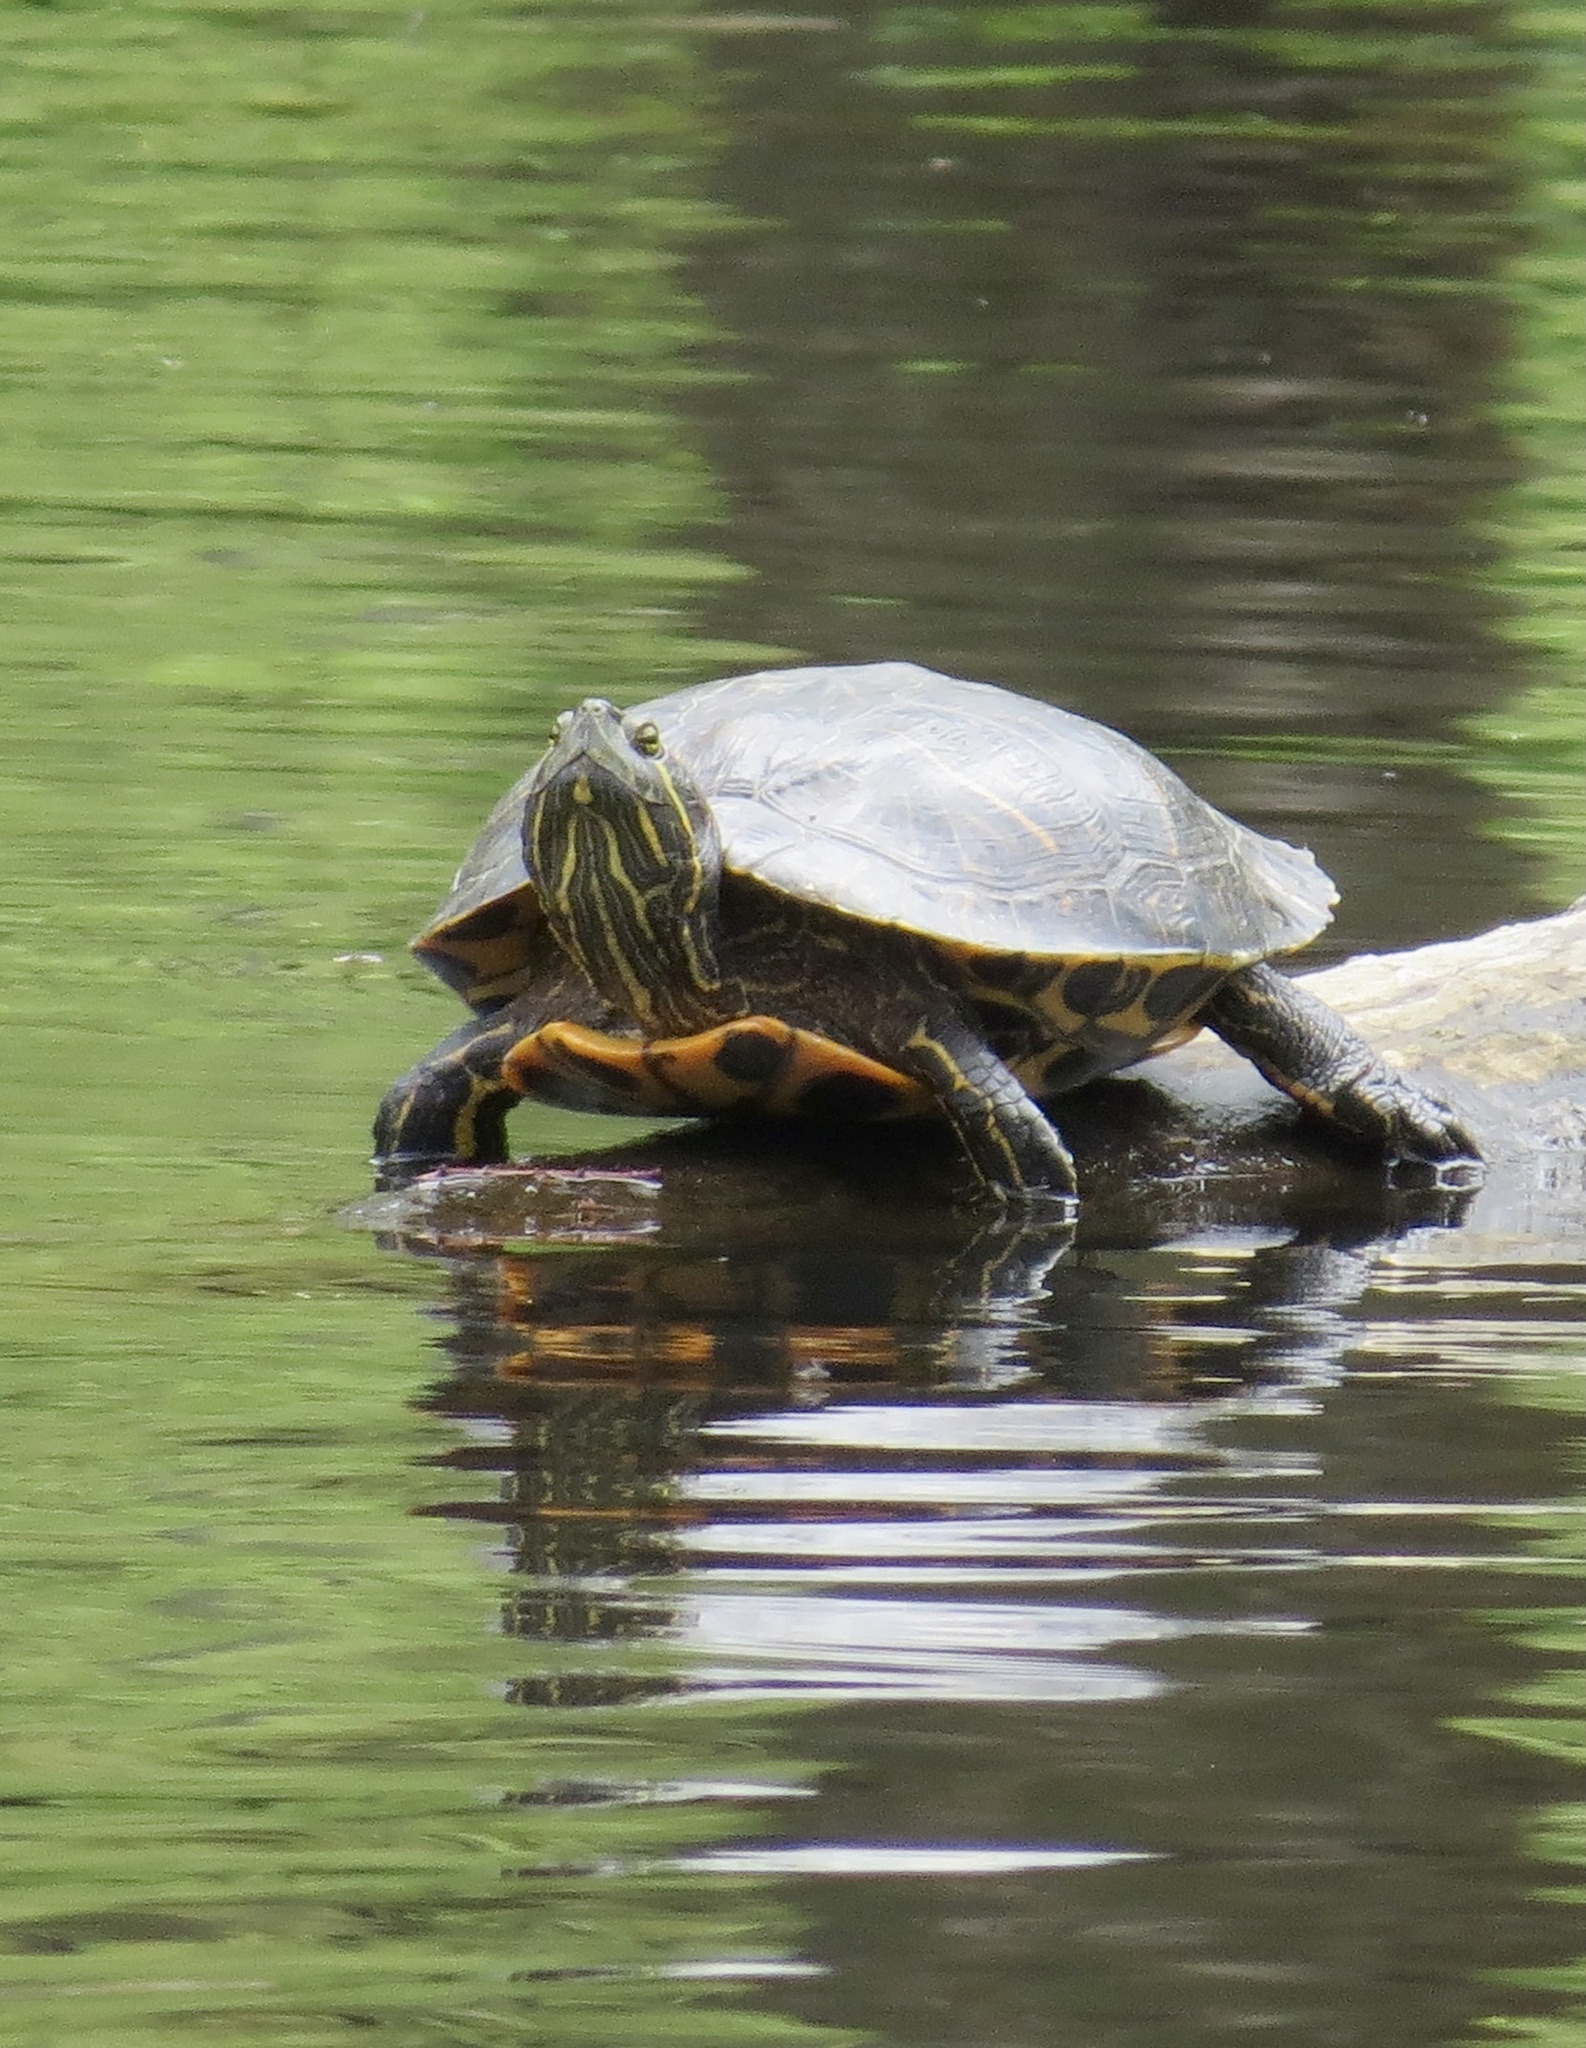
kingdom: Animalia
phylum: Chordata
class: Testudines
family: Emydidae
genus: Trachemys
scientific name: Trachemys scripta
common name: Slider
